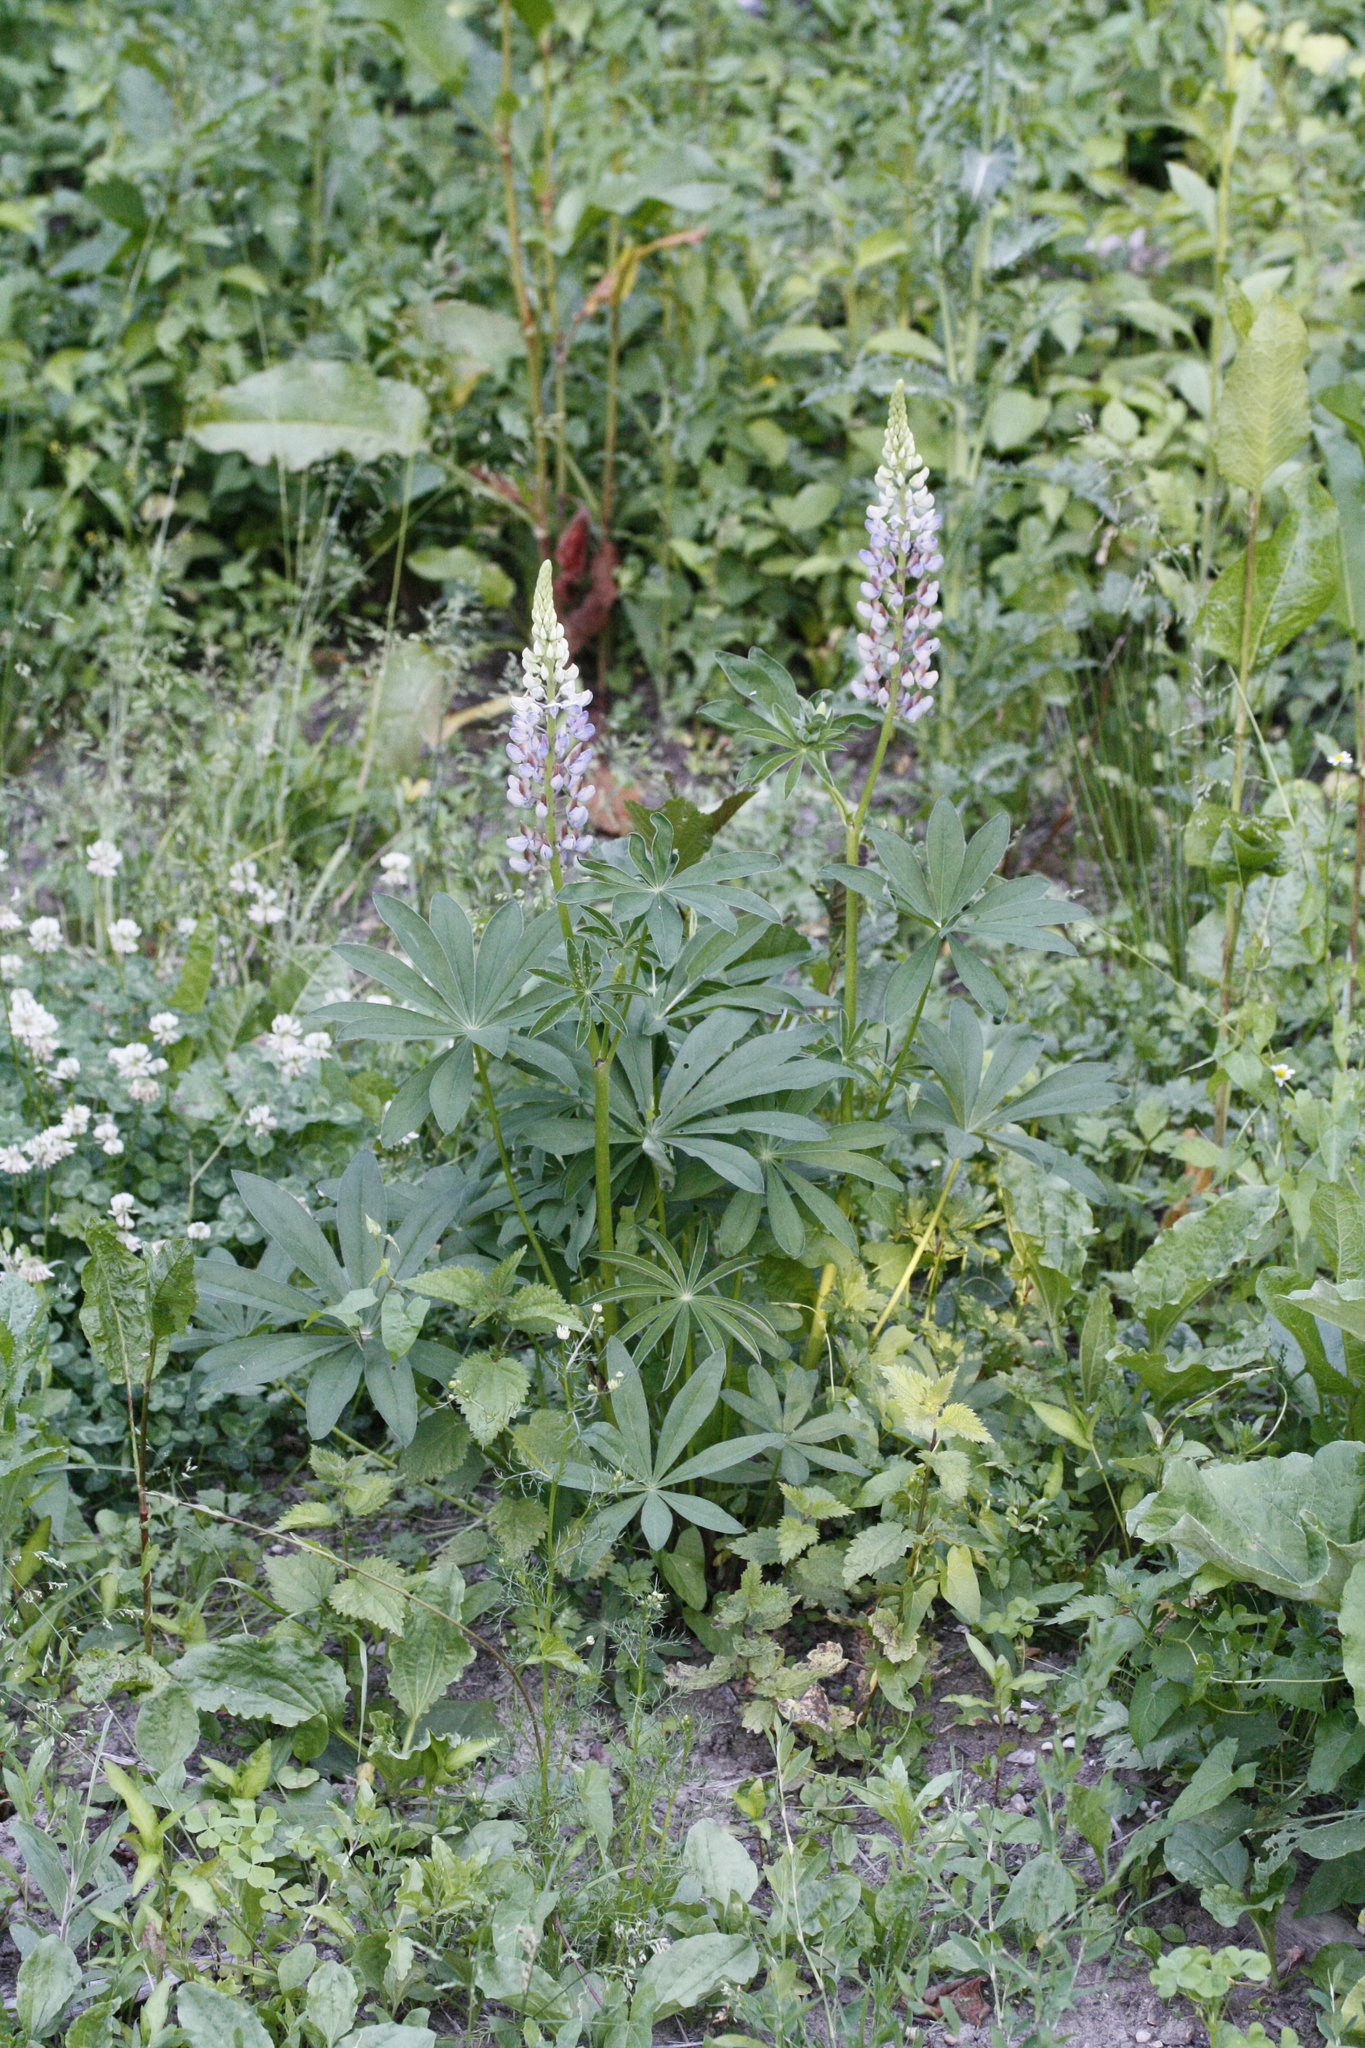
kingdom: Plantae
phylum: Tracheophyta
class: Magnoliopsida
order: Fabales
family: Fabaceae
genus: Lupinus
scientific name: Lupinus polyphyllus
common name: Garden lupin
